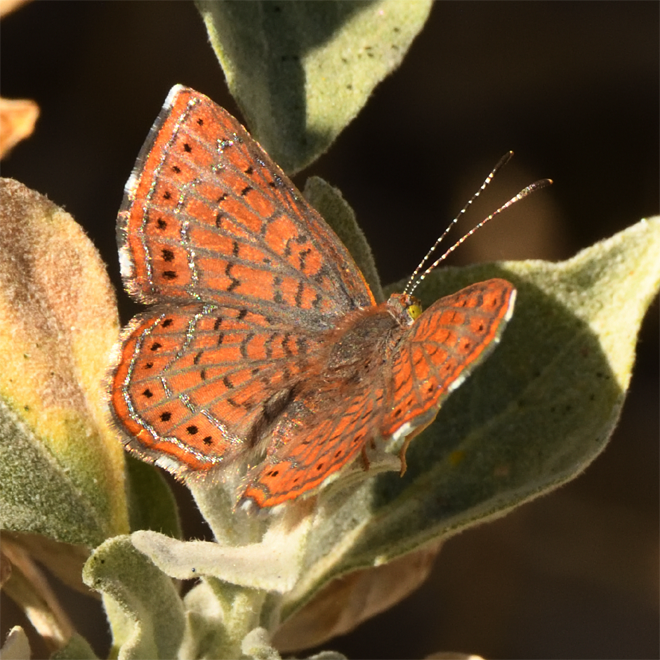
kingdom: Animalia
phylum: Arthropoda
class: Insecta
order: Lepidoptera
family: Lycaenidae
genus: Emesis
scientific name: Emesis wrighti
